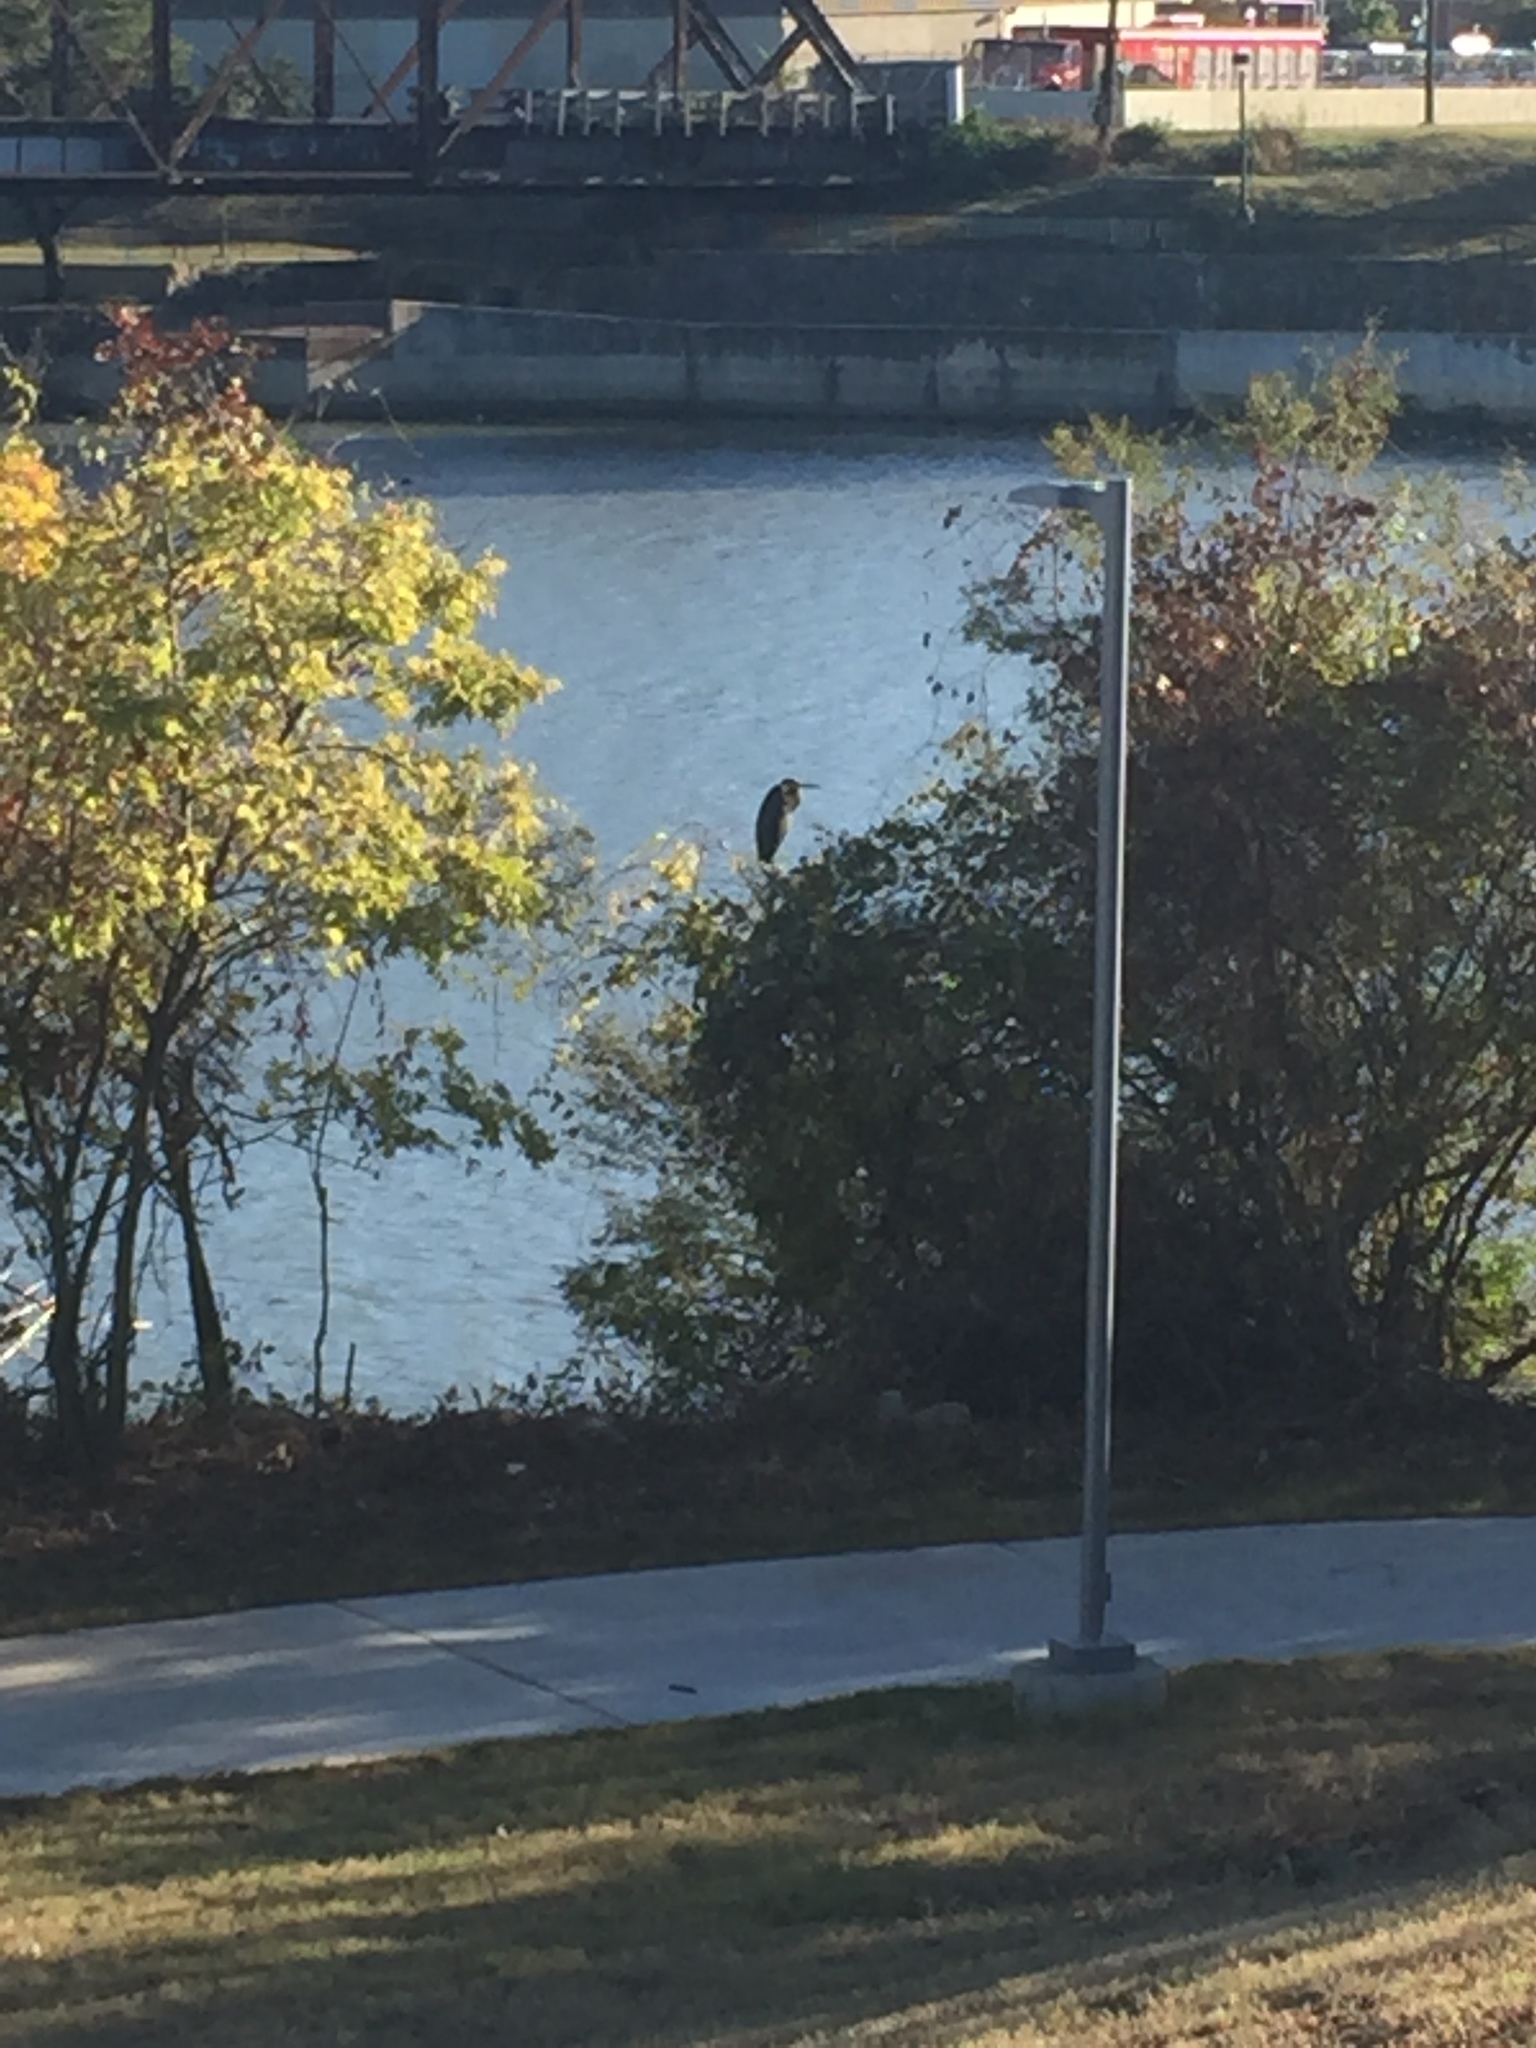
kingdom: Animalia
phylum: Chordata
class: Aves
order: Pelecaniformes
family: Ardeidae
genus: Ardea
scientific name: Ardea herodias
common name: Great blue heron
